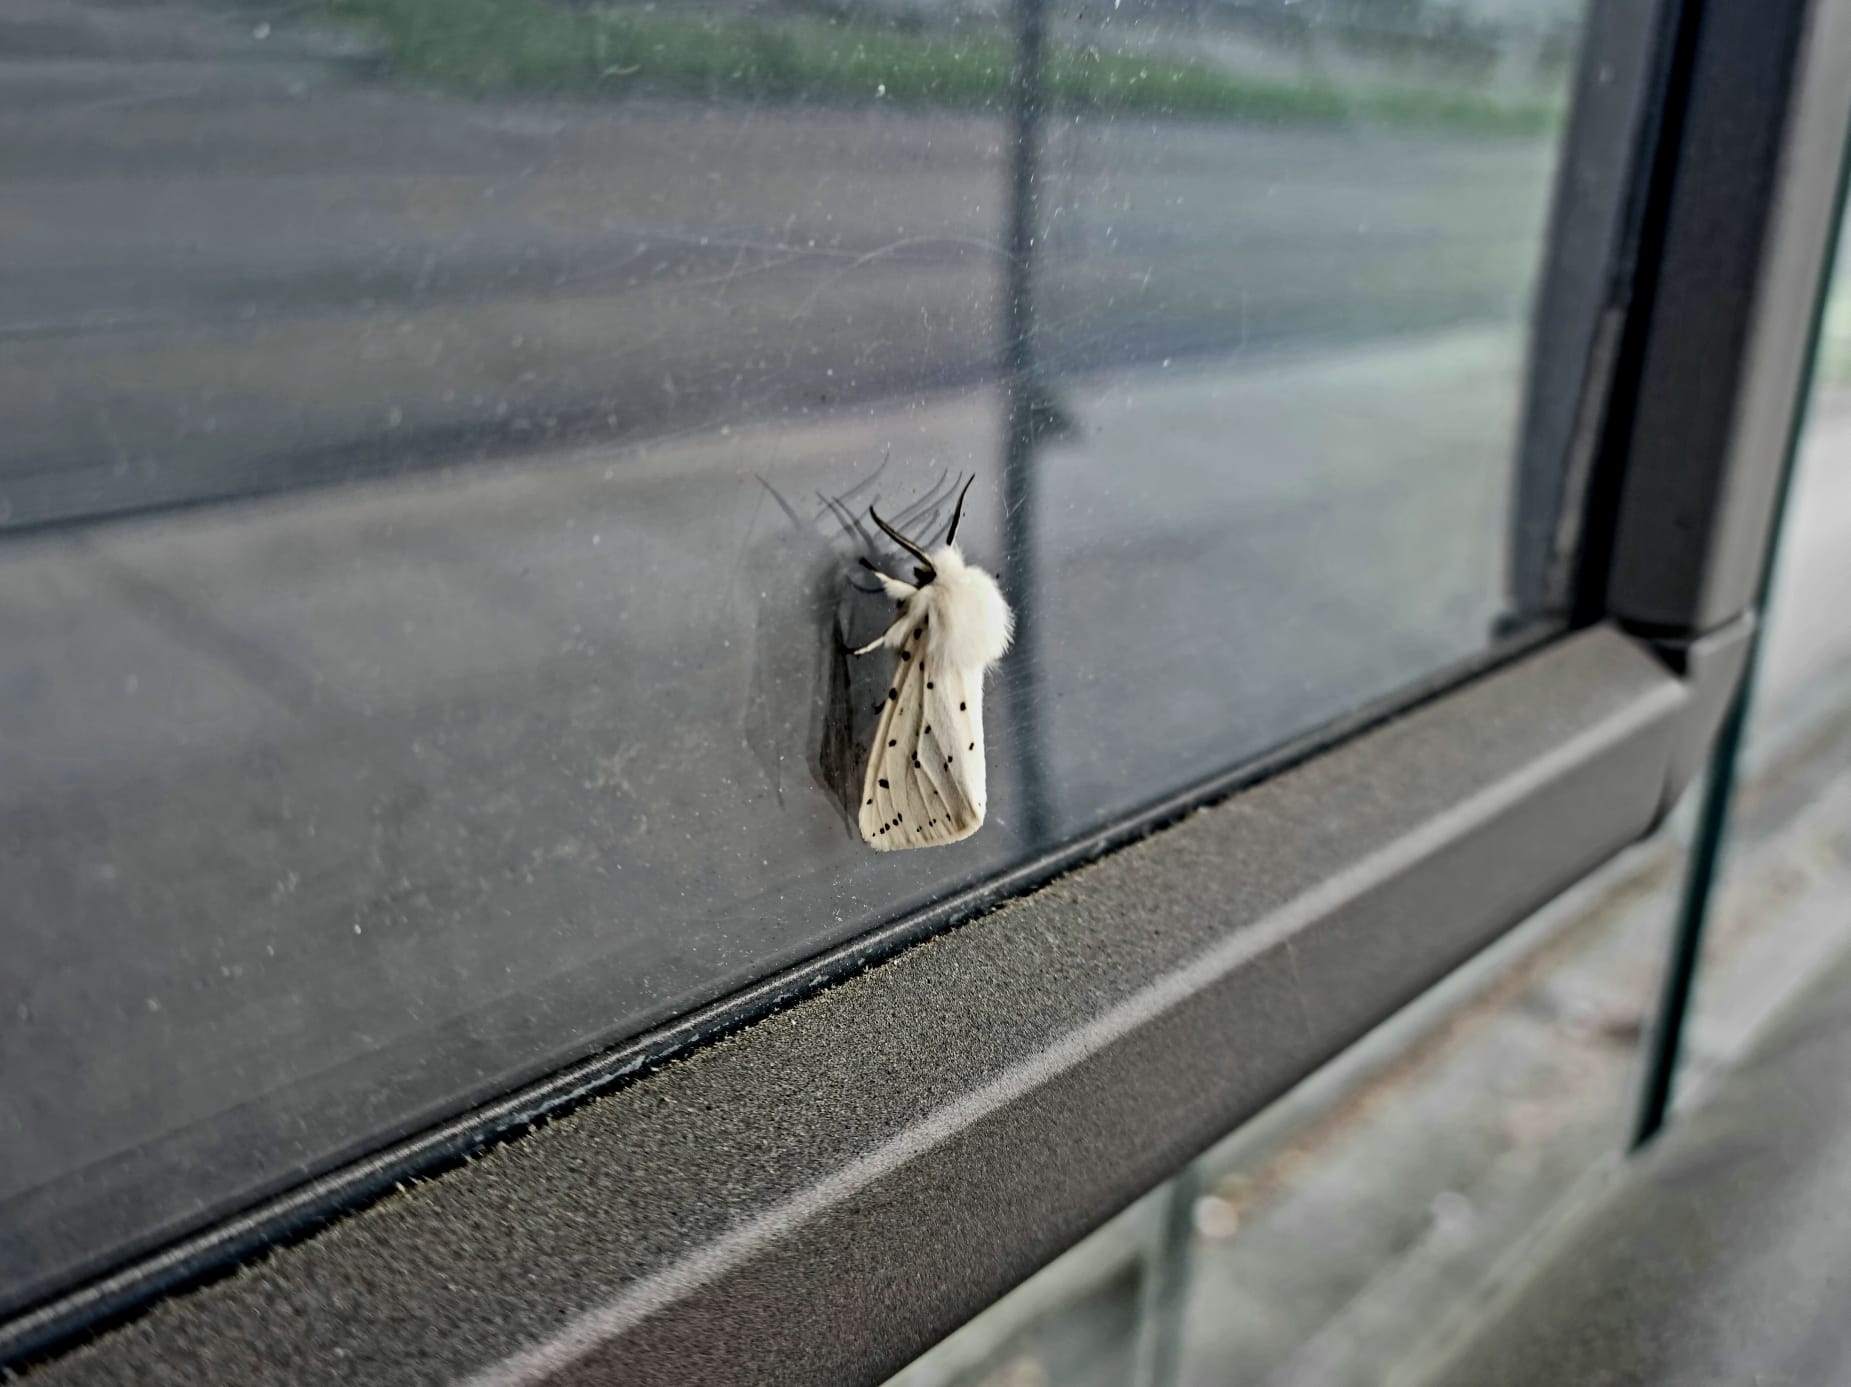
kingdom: Animalia
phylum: Arthropoda
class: Insecta
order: Lepidoptera
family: Erebidae
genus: Spilosoma
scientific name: Spilosoma lubricipeda
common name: White ermine
